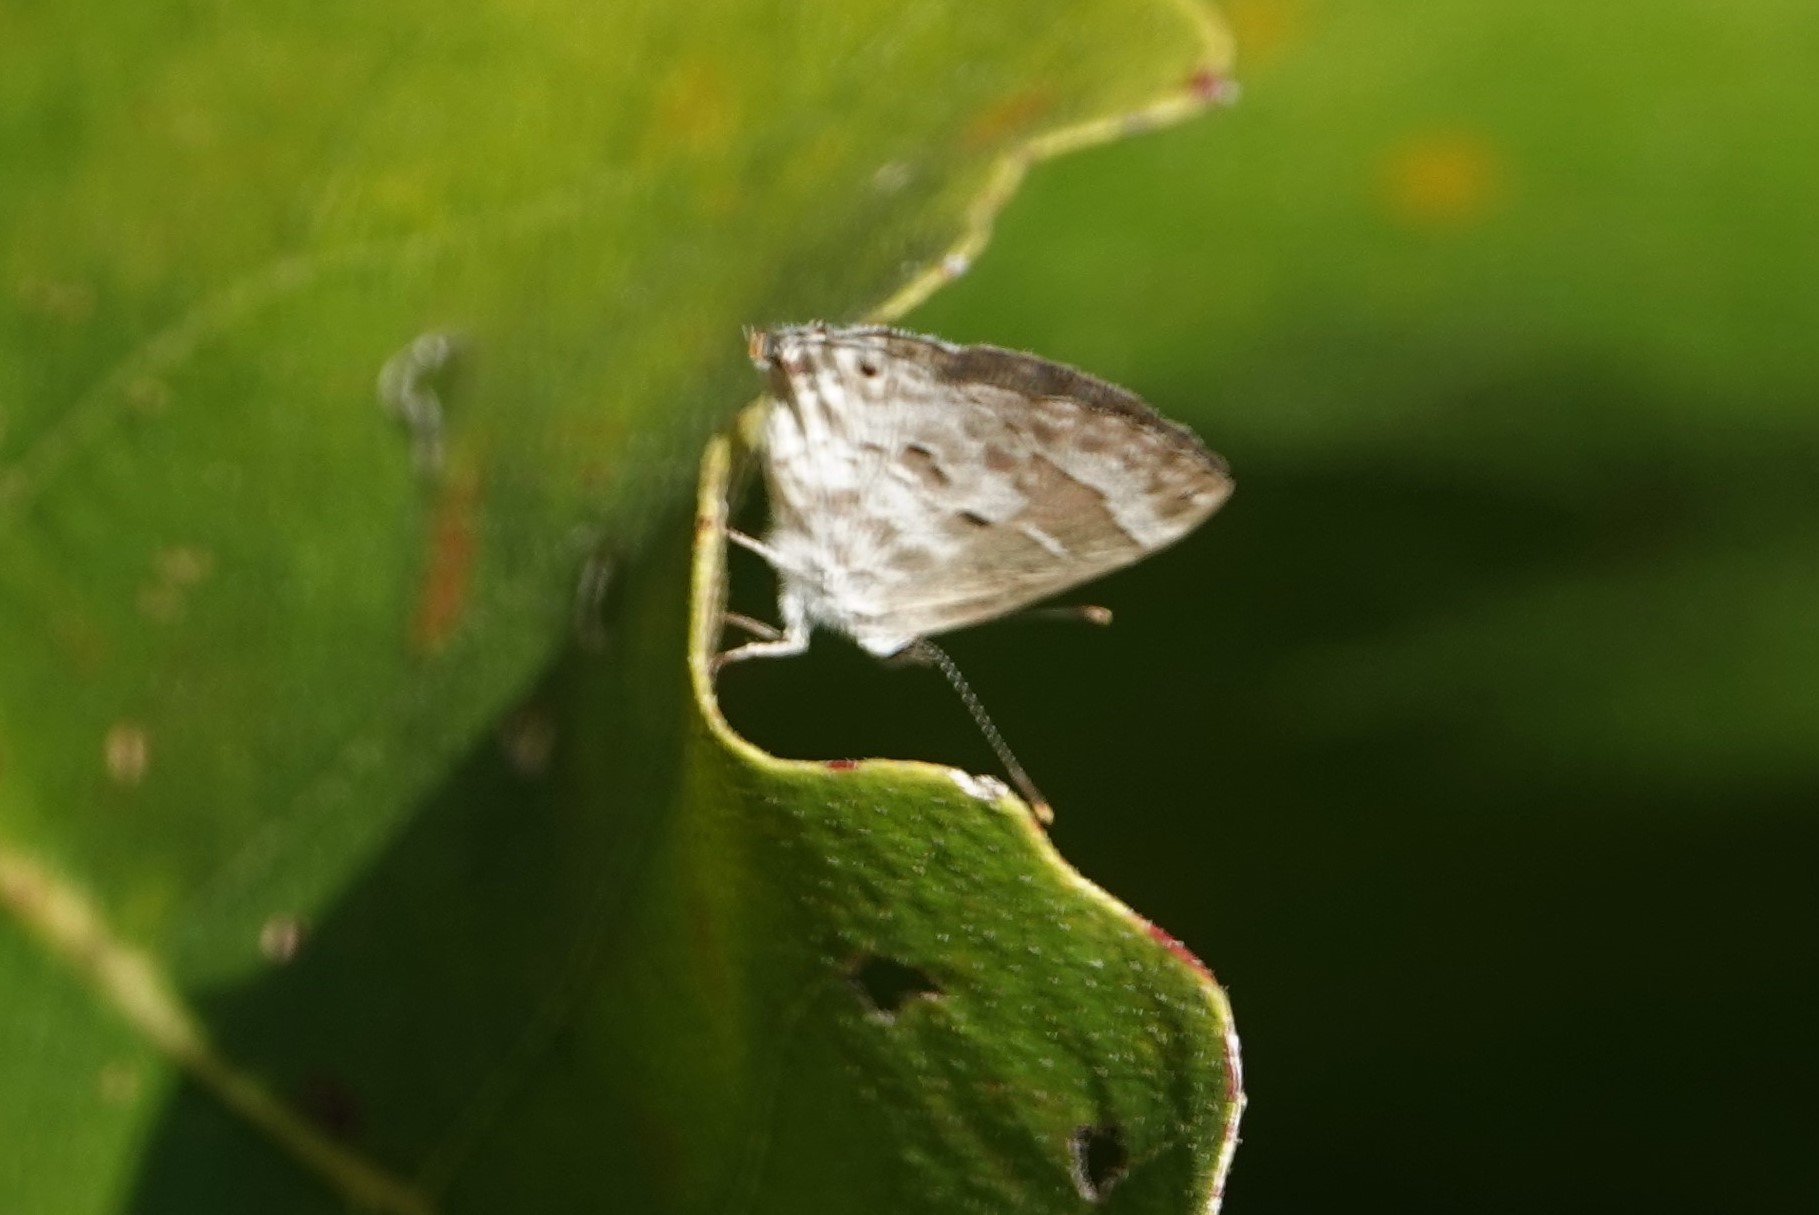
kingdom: Animalia
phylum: Arthropoda
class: Insecta
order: Lepidoptera
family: Lycaenidae
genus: Strymon
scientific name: Strymon mulucha
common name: Mottled scrub-hairstreak
